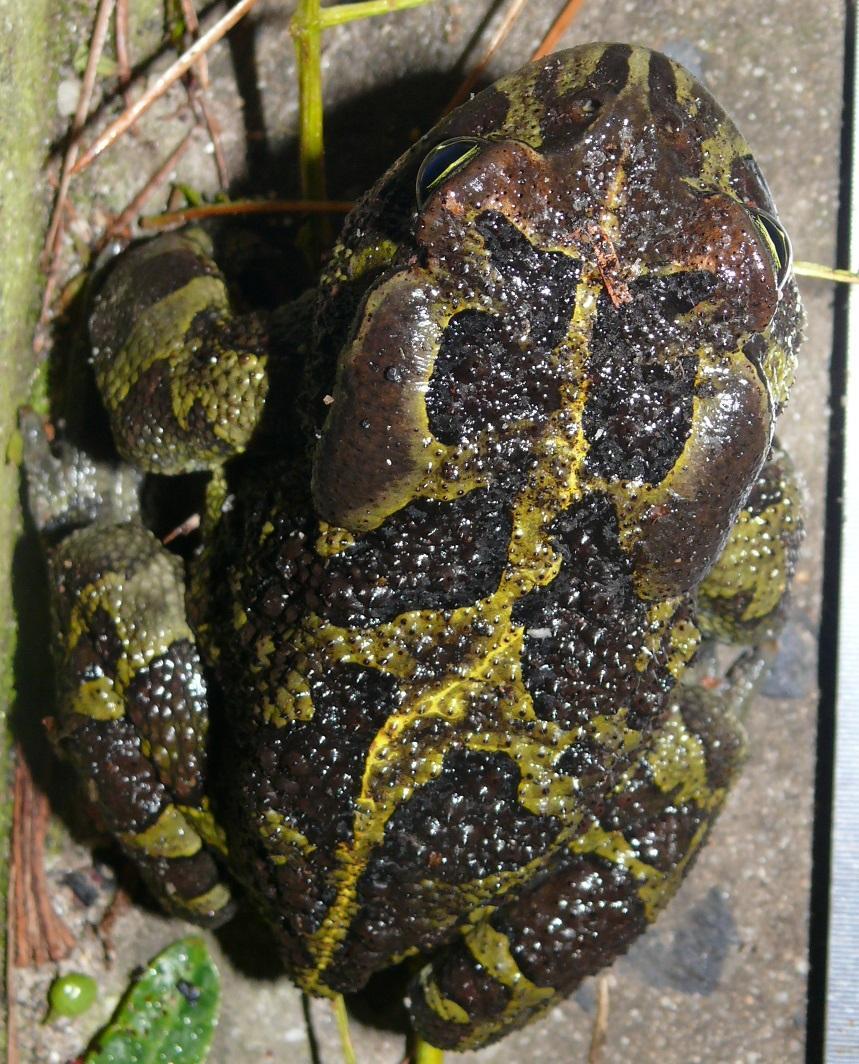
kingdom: Animalia
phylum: Chordata
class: Amphibia
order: Anura
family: Bufonidae
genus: Sclerophrys
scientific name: Sclerophrys pantherina
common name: Panther toad
